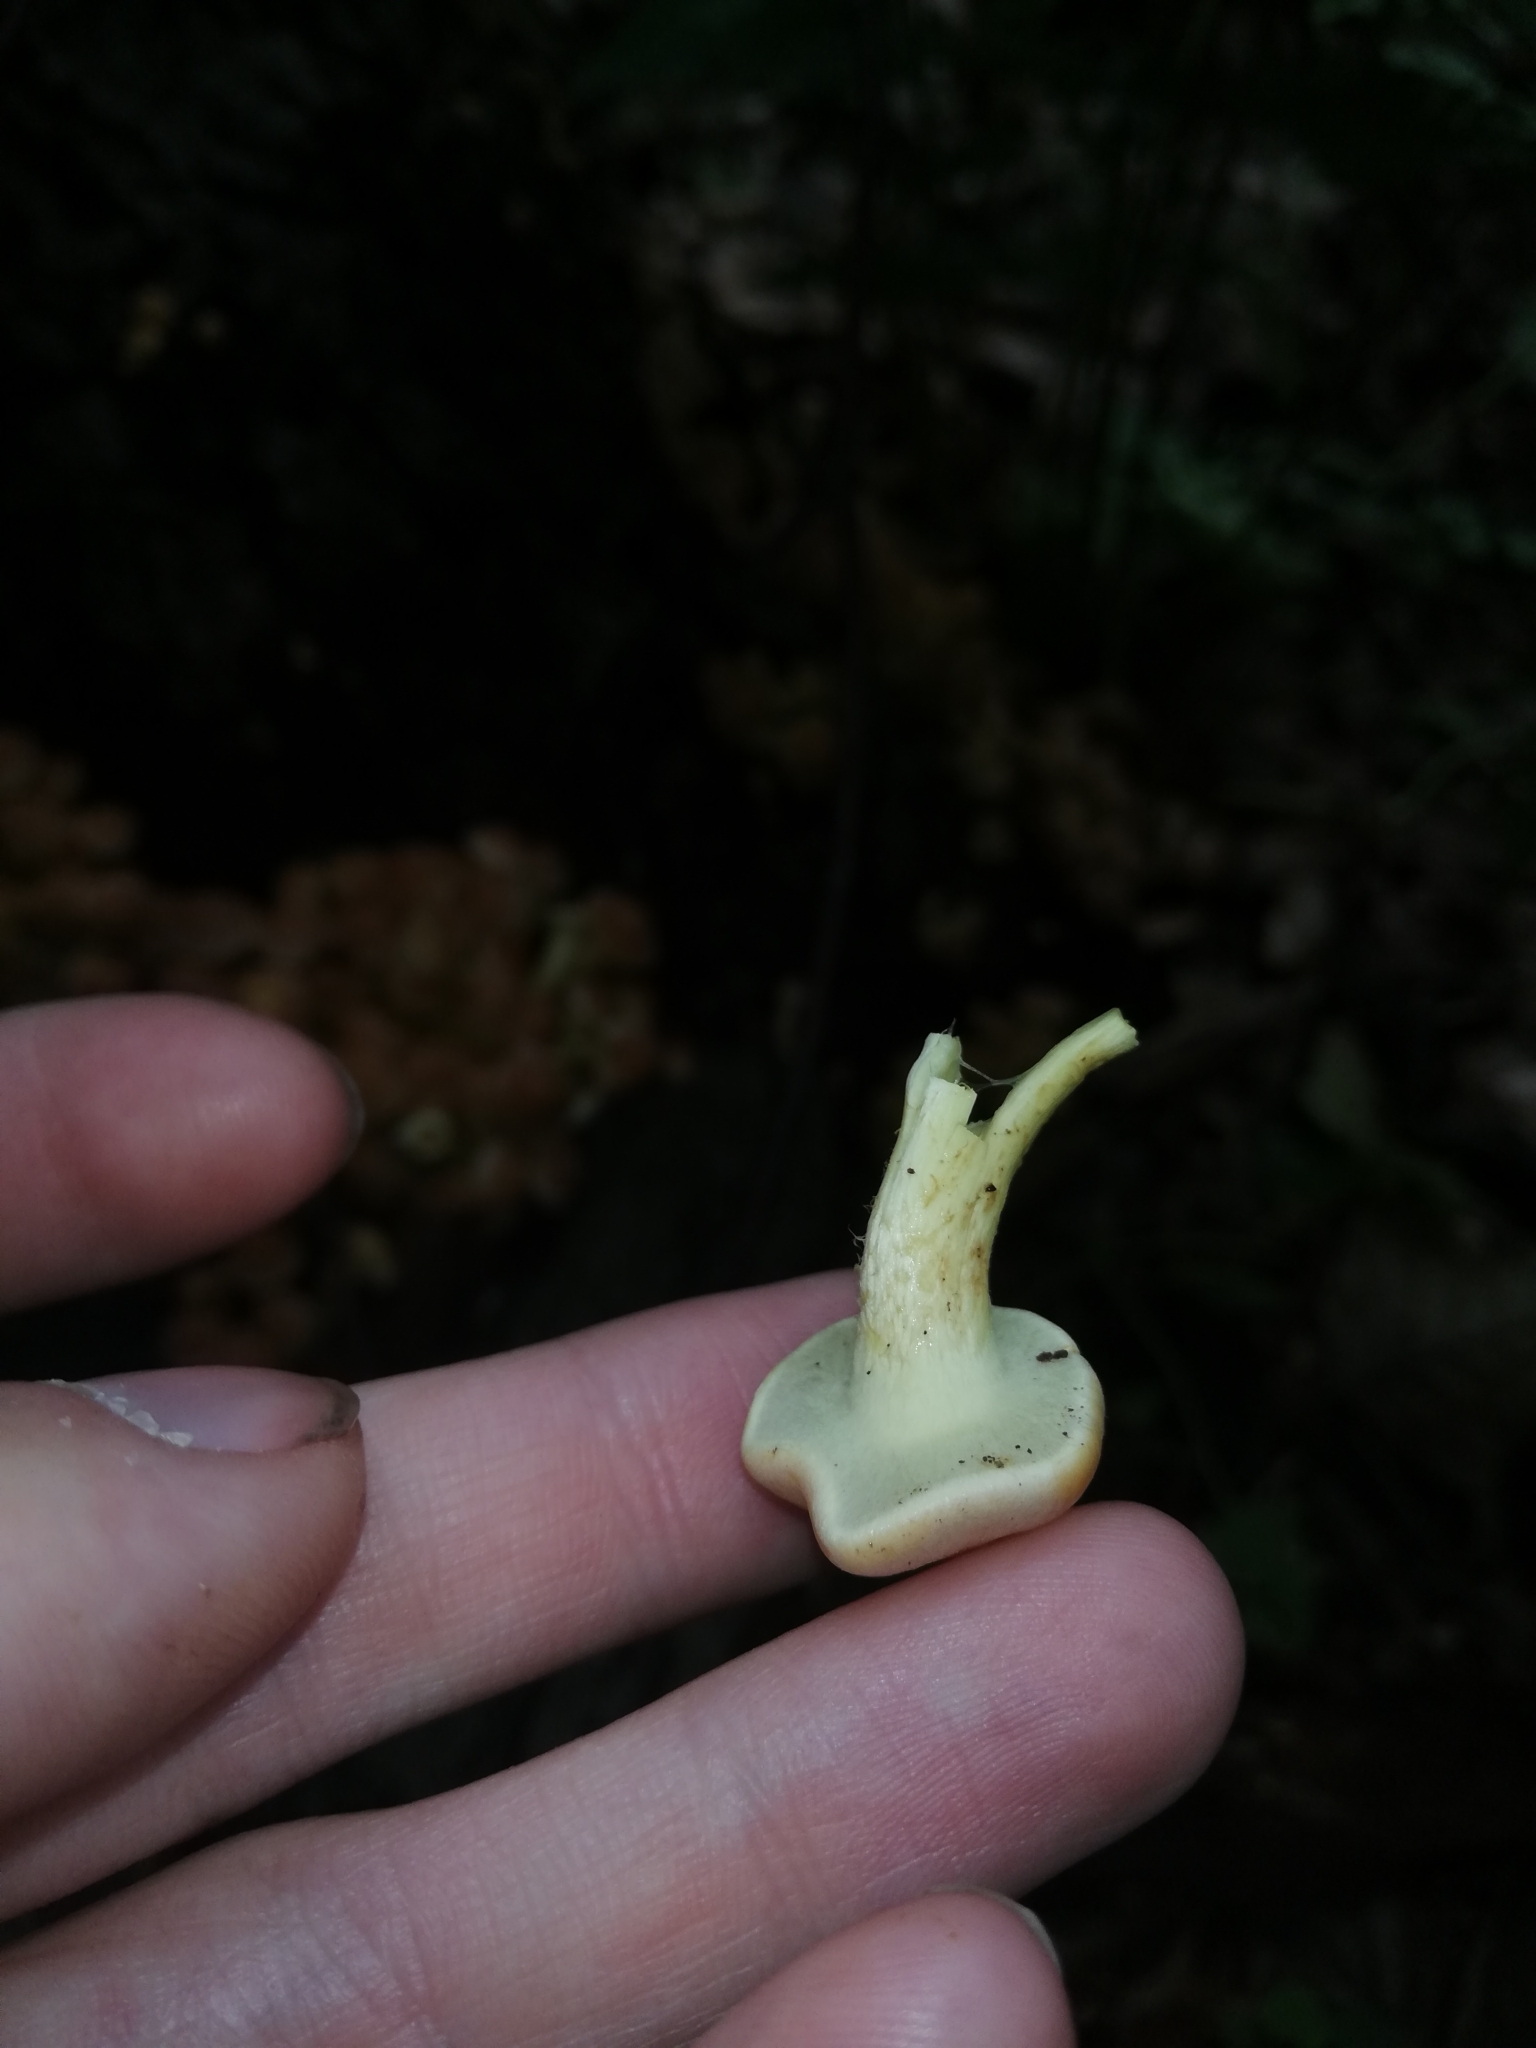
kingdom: Fungi
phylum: Basidiomycota
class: Agaricomycetes
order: Agaricales
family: Strophariaceae
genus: Hypholoma
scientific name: Hypholoma fasciculare
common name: Sulphur tuft
